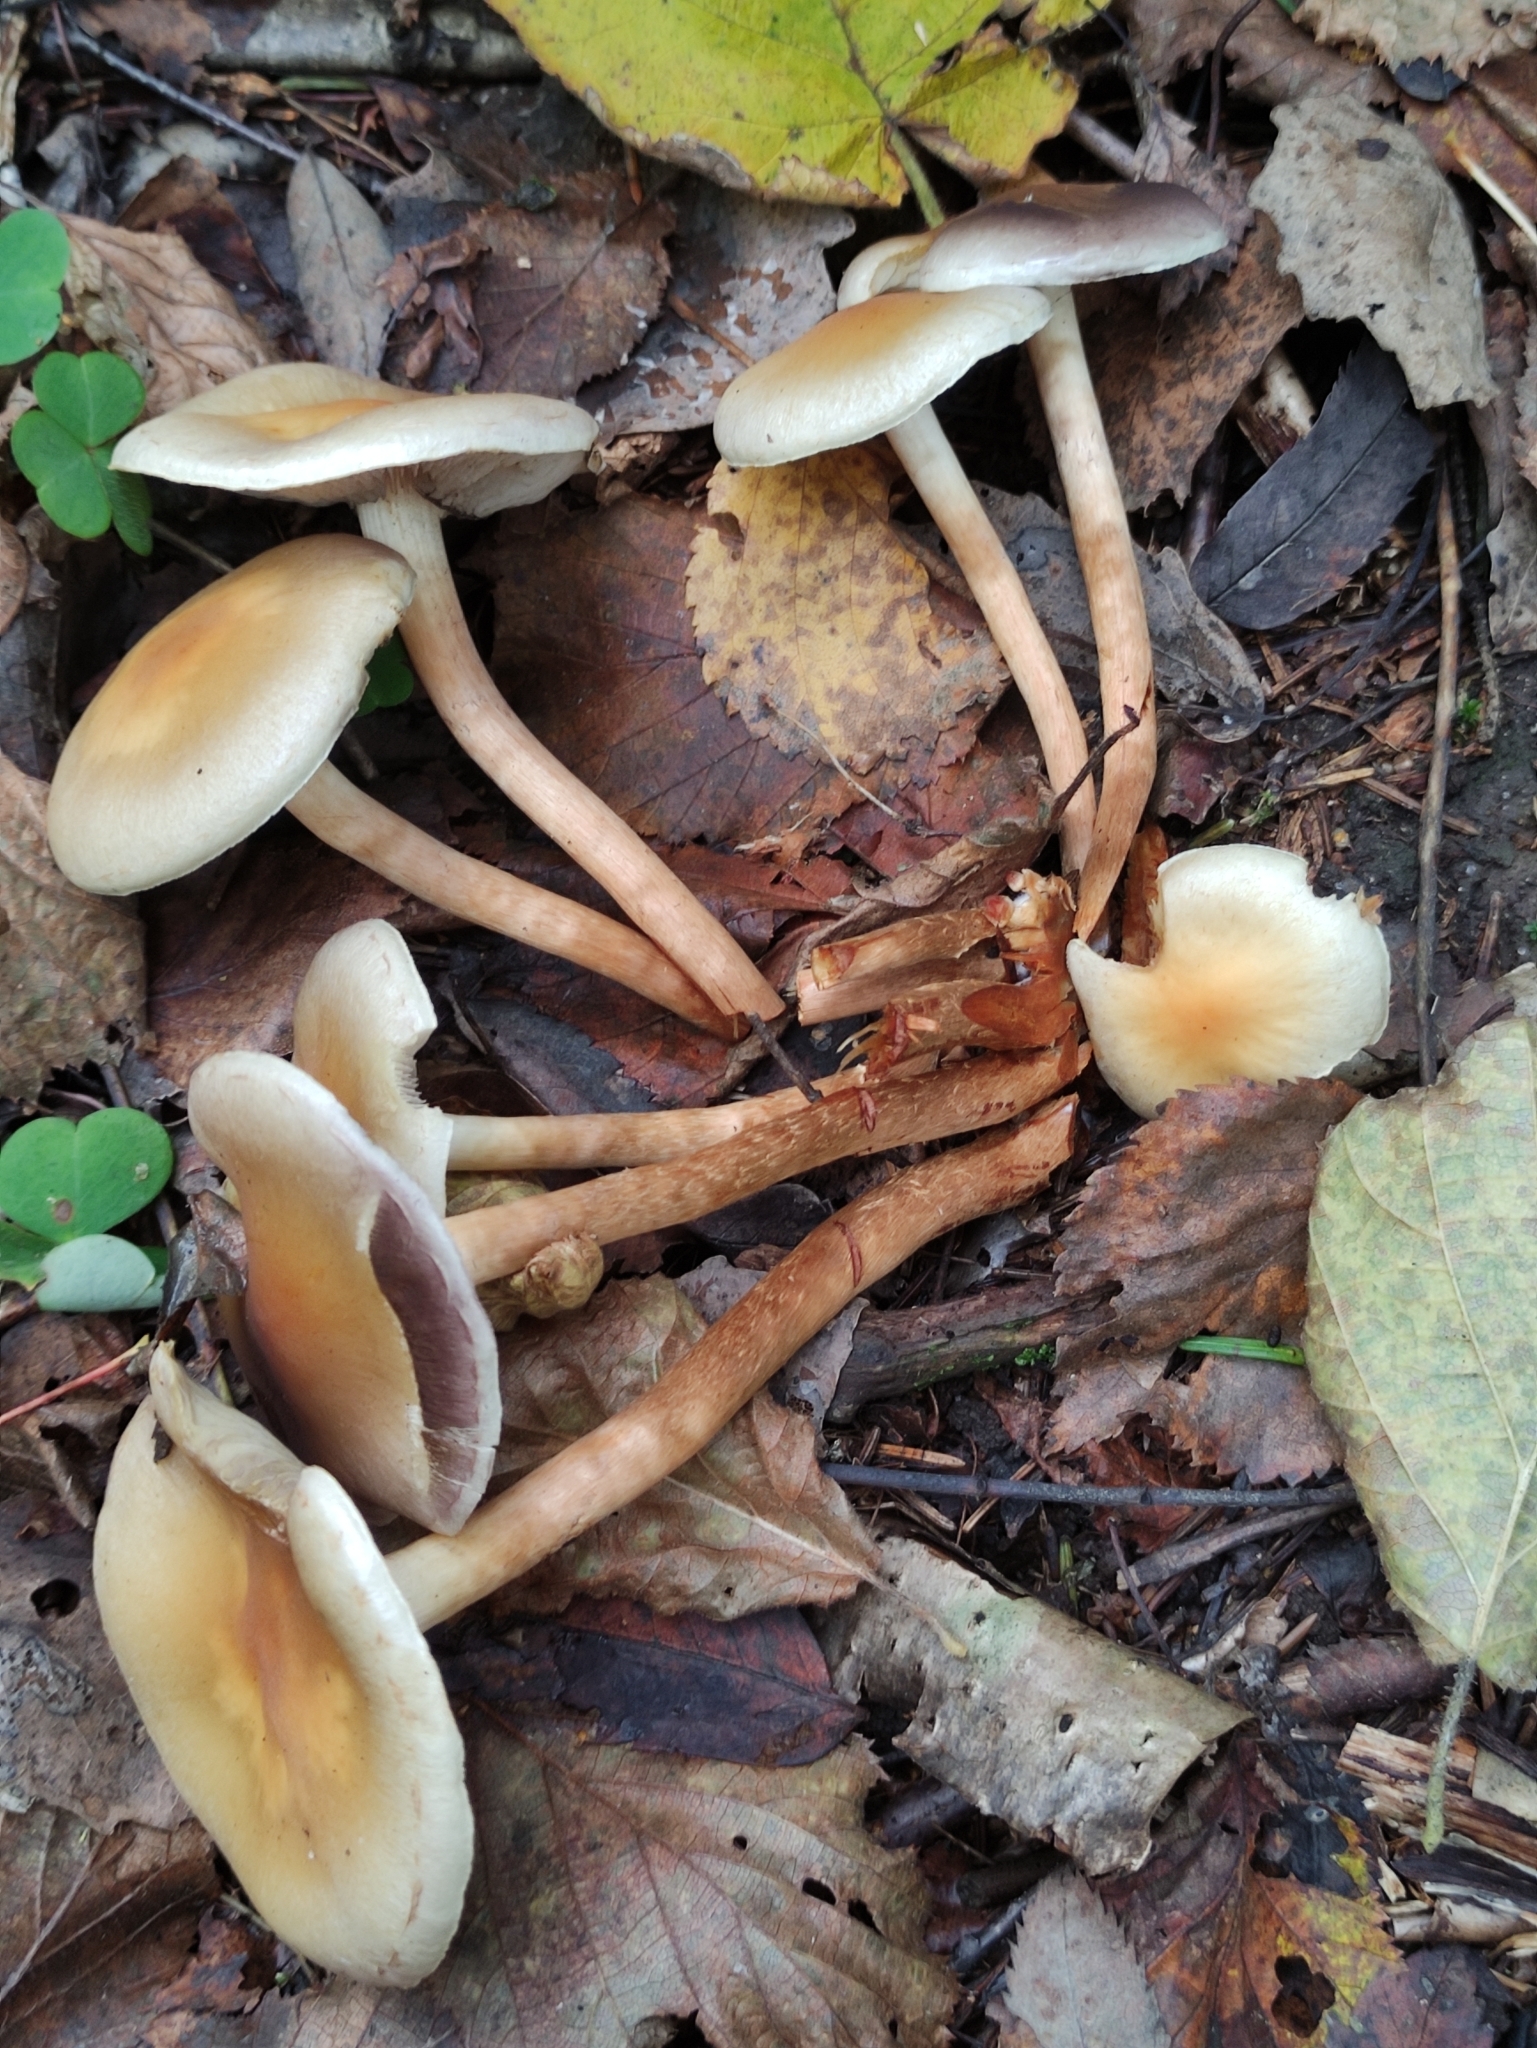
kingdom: Fungi
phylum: Basidiomycota
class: Agaricomycetes
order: Agaricales
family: Strophariaceae
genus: Hypholoma
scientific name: Hypholoma capnoides
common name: Conifer tuft
